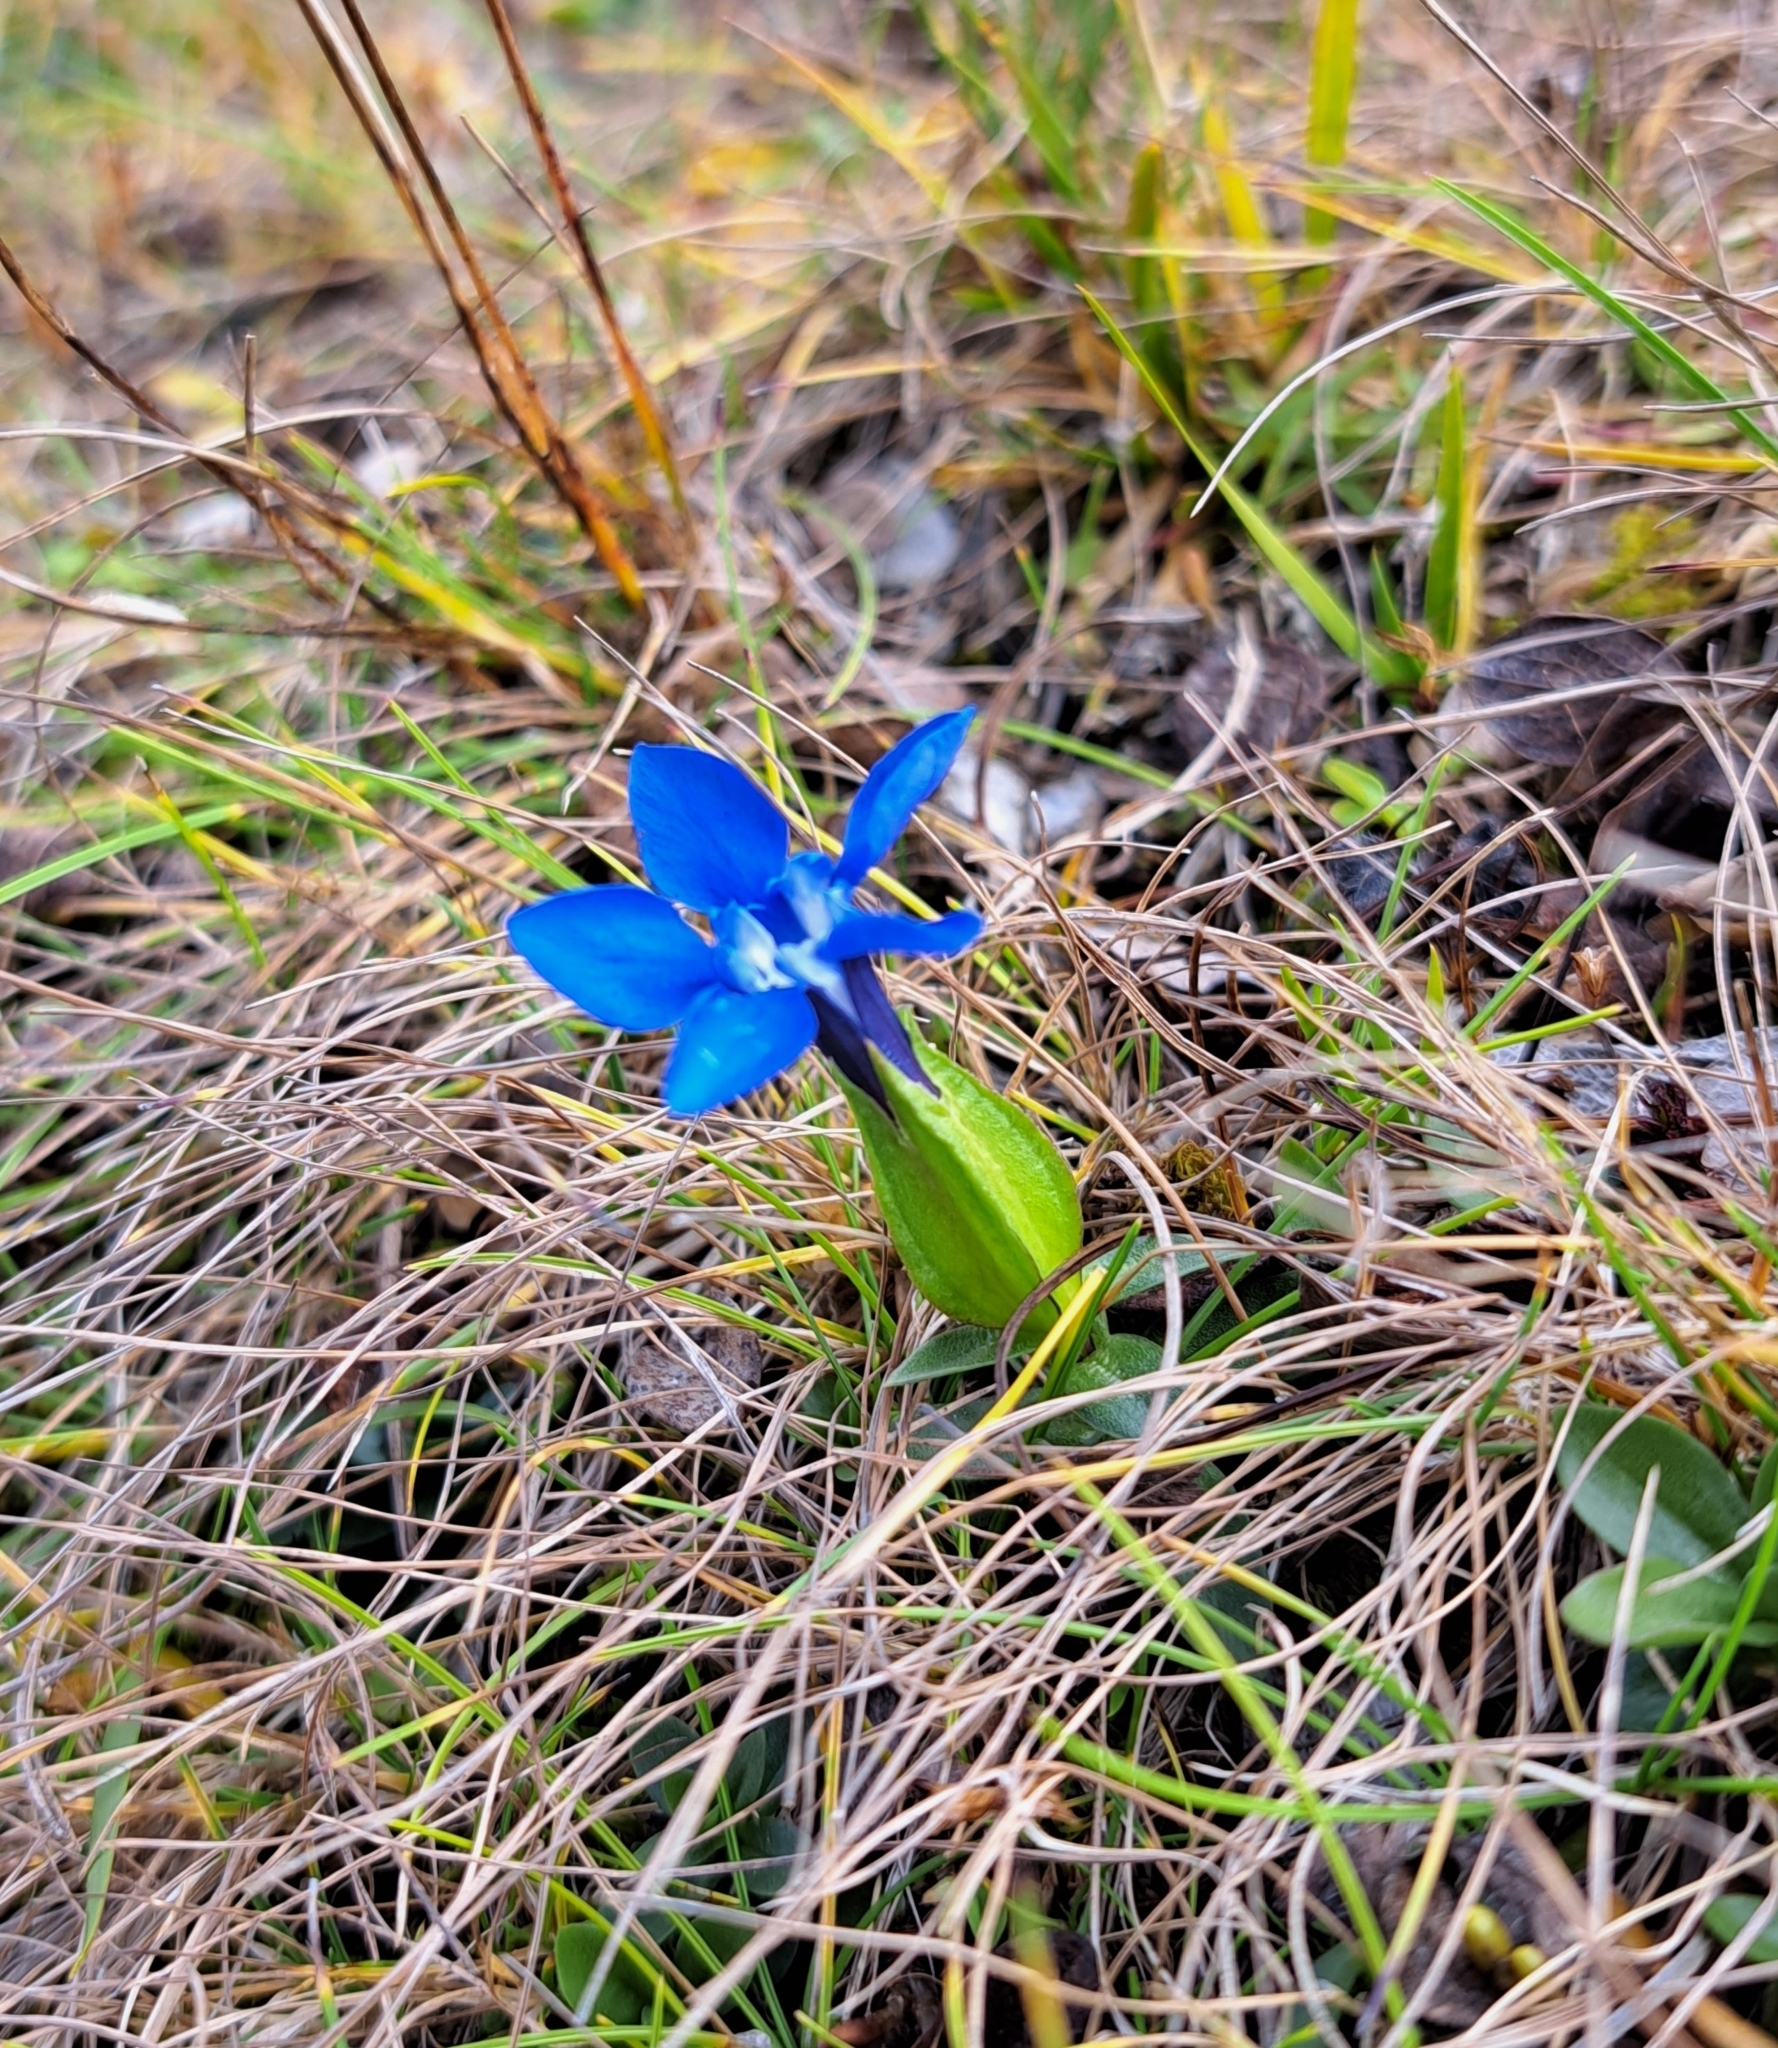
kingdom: Plantae
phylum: Tracheophyta
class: Magnoliopsida
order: Gentianales
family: Gentianaceae
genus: Gentiana
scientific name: Gentiana verna
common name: Spring gentian
